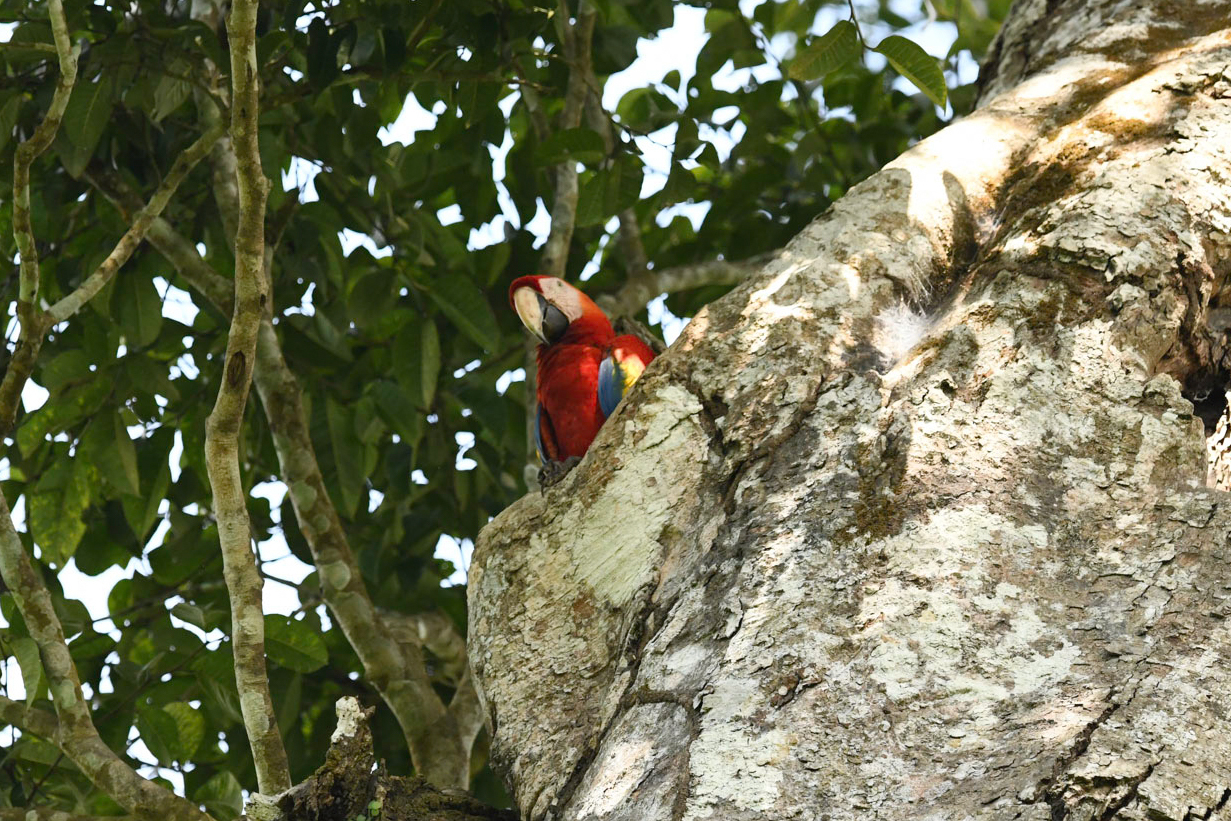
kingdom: Animalia
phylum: Chordata
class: Aves
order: Psittaciformes
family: Psittacidae
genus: Ara
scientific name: Ara macao
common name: Scarlet macaw
